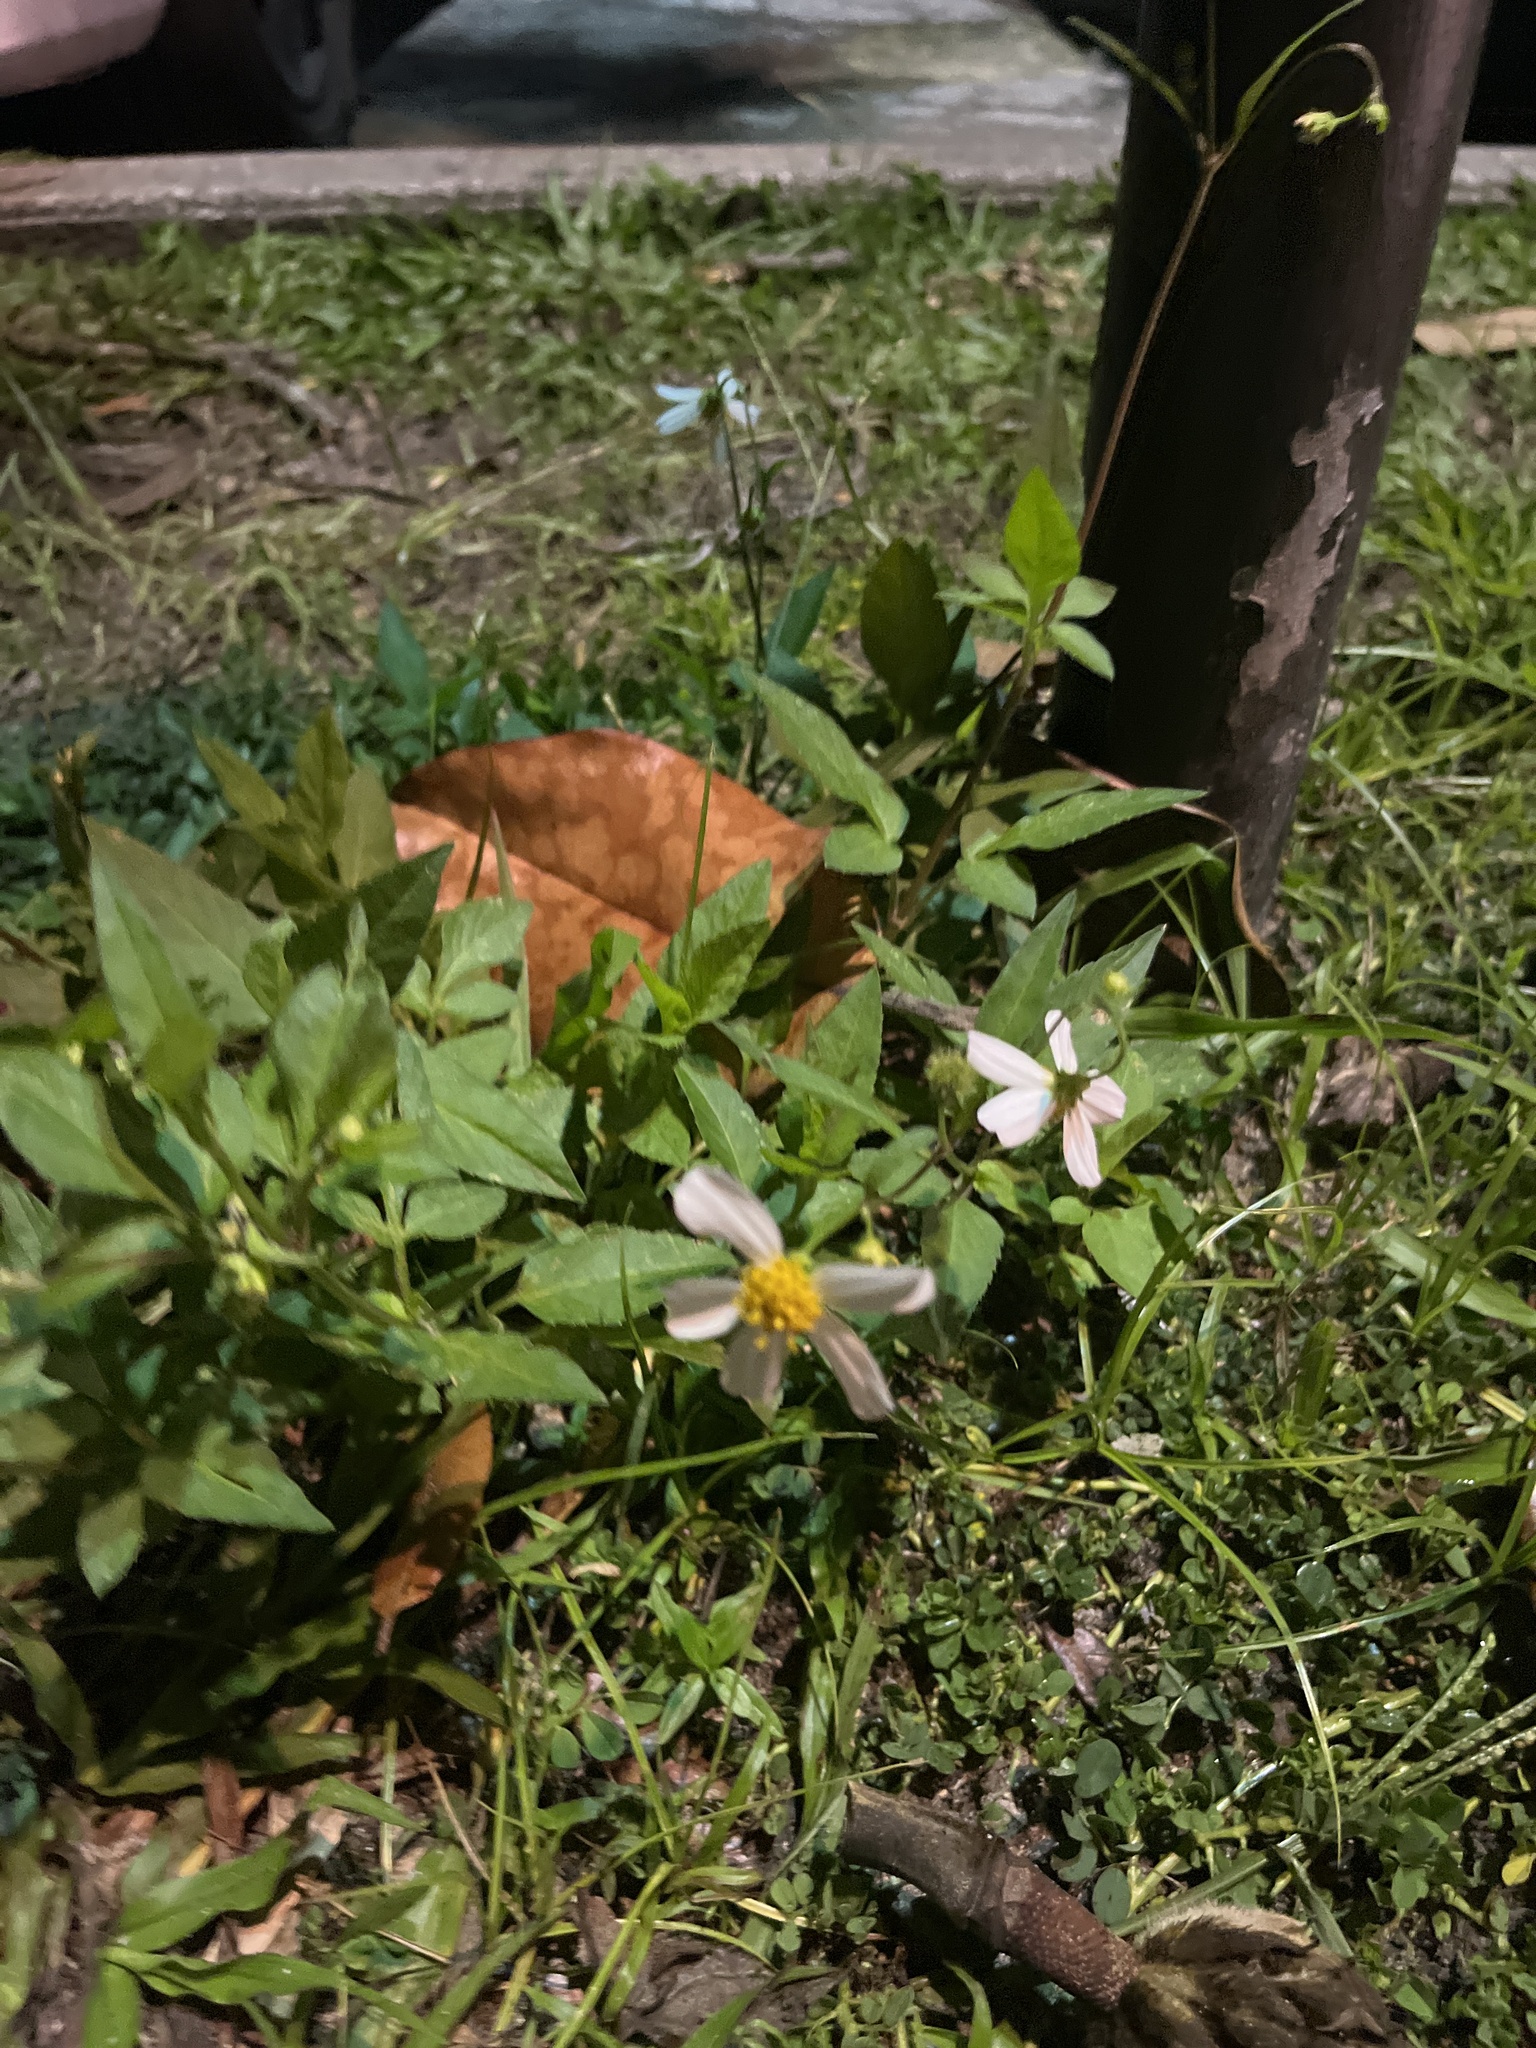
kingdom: Plantae
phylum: Tracheophyta
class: Magnoliopsida
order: Asterales
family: Asteraceae
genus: Bidens
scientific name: Bidens alba
